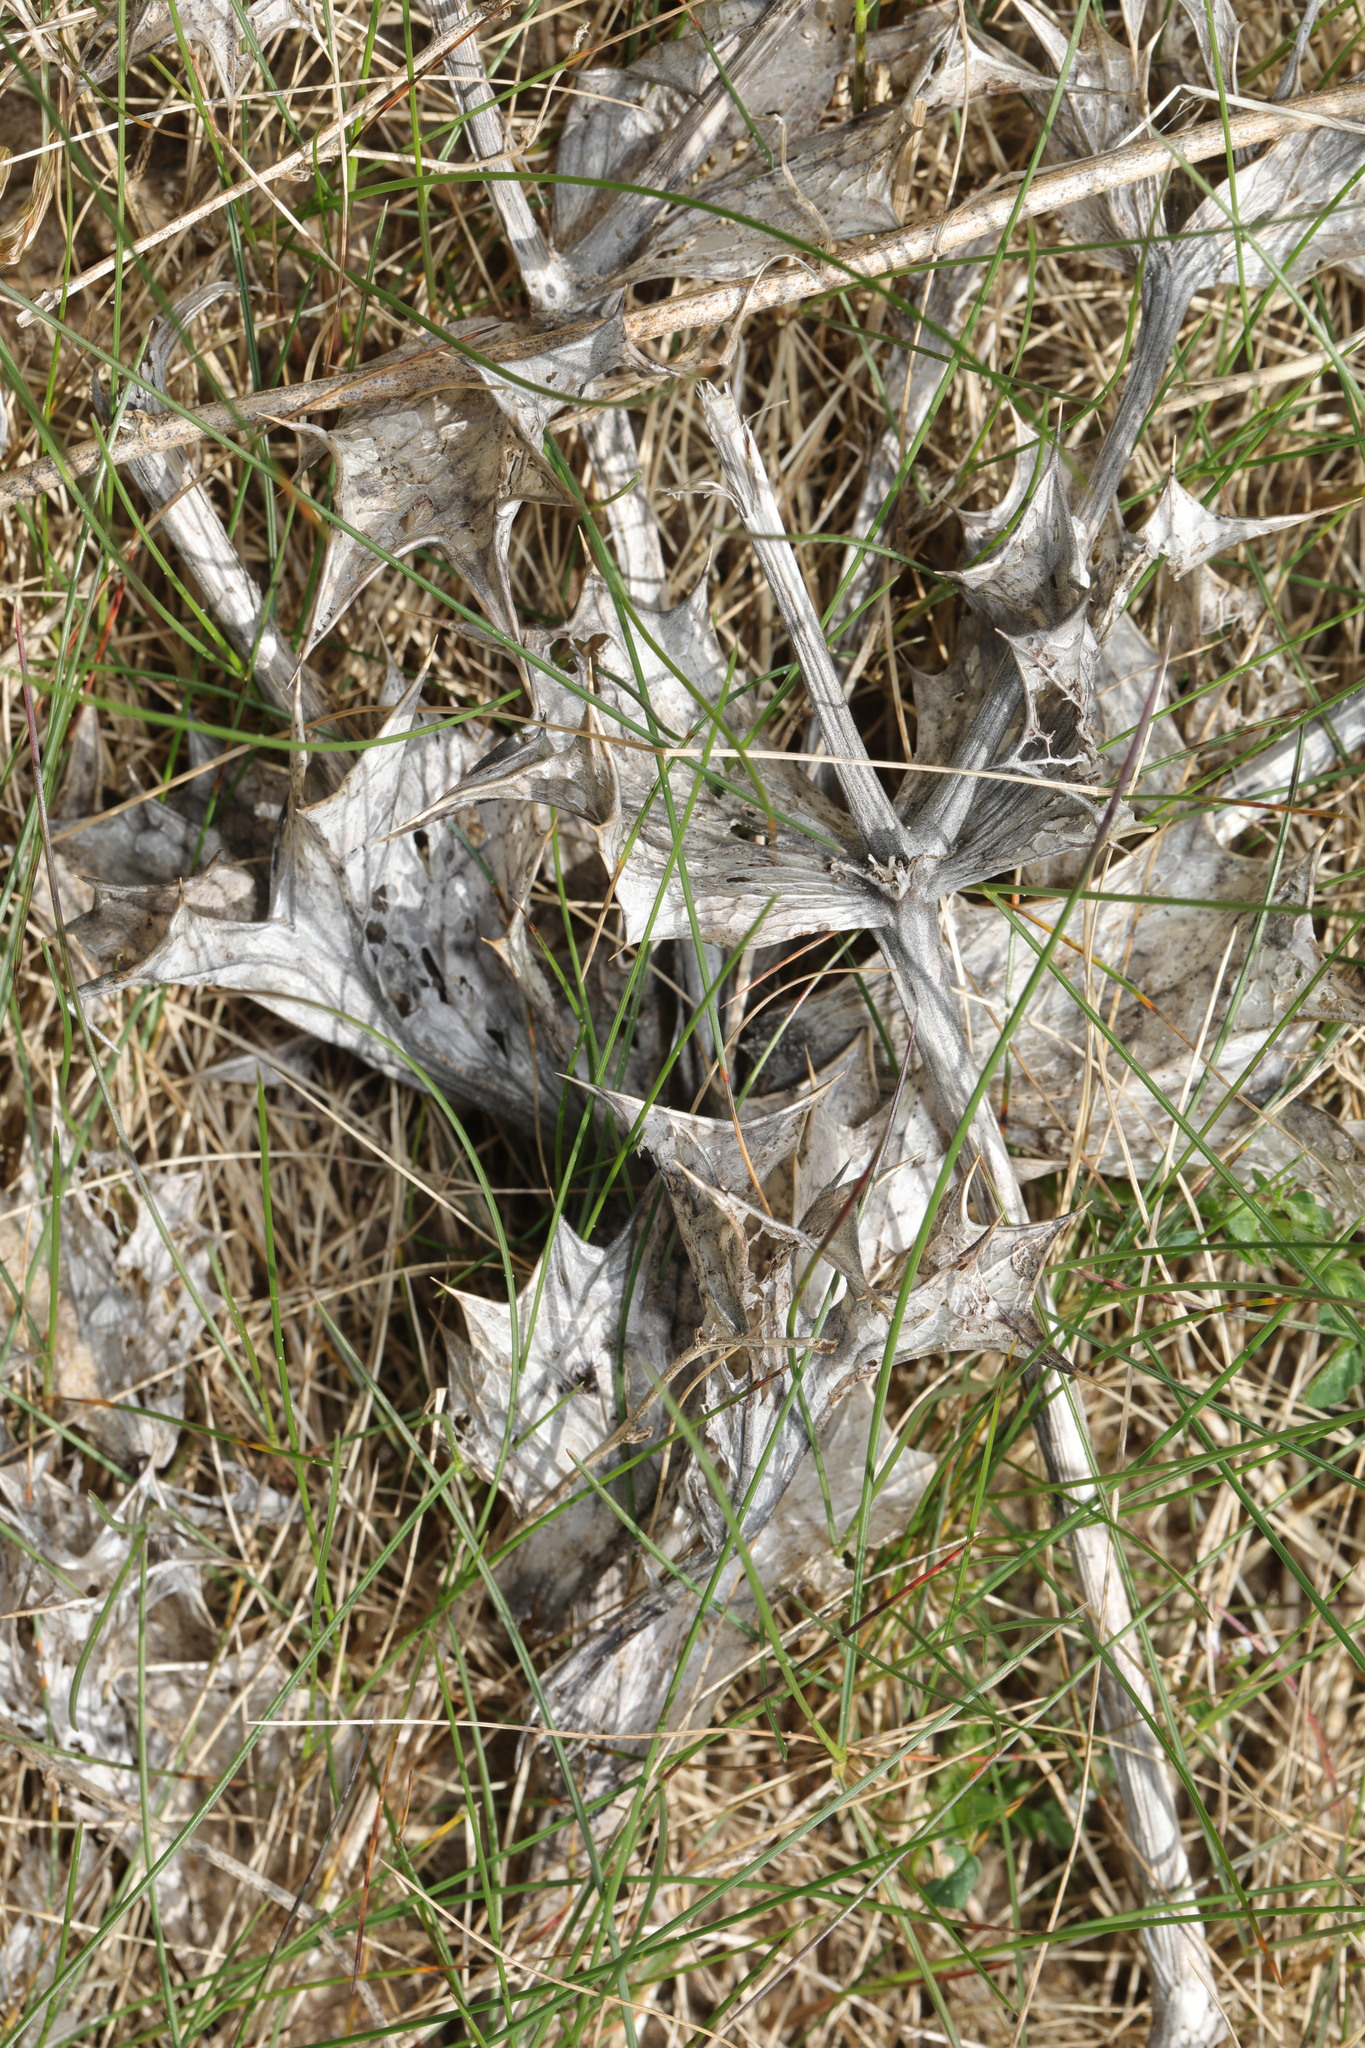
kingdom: Plantae
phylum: Tracheophyta
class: Magnoliopsida
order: Apiales
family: Apiaceae
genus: Eryngium
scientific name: Eryngium maritimum
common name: Sea-holly
